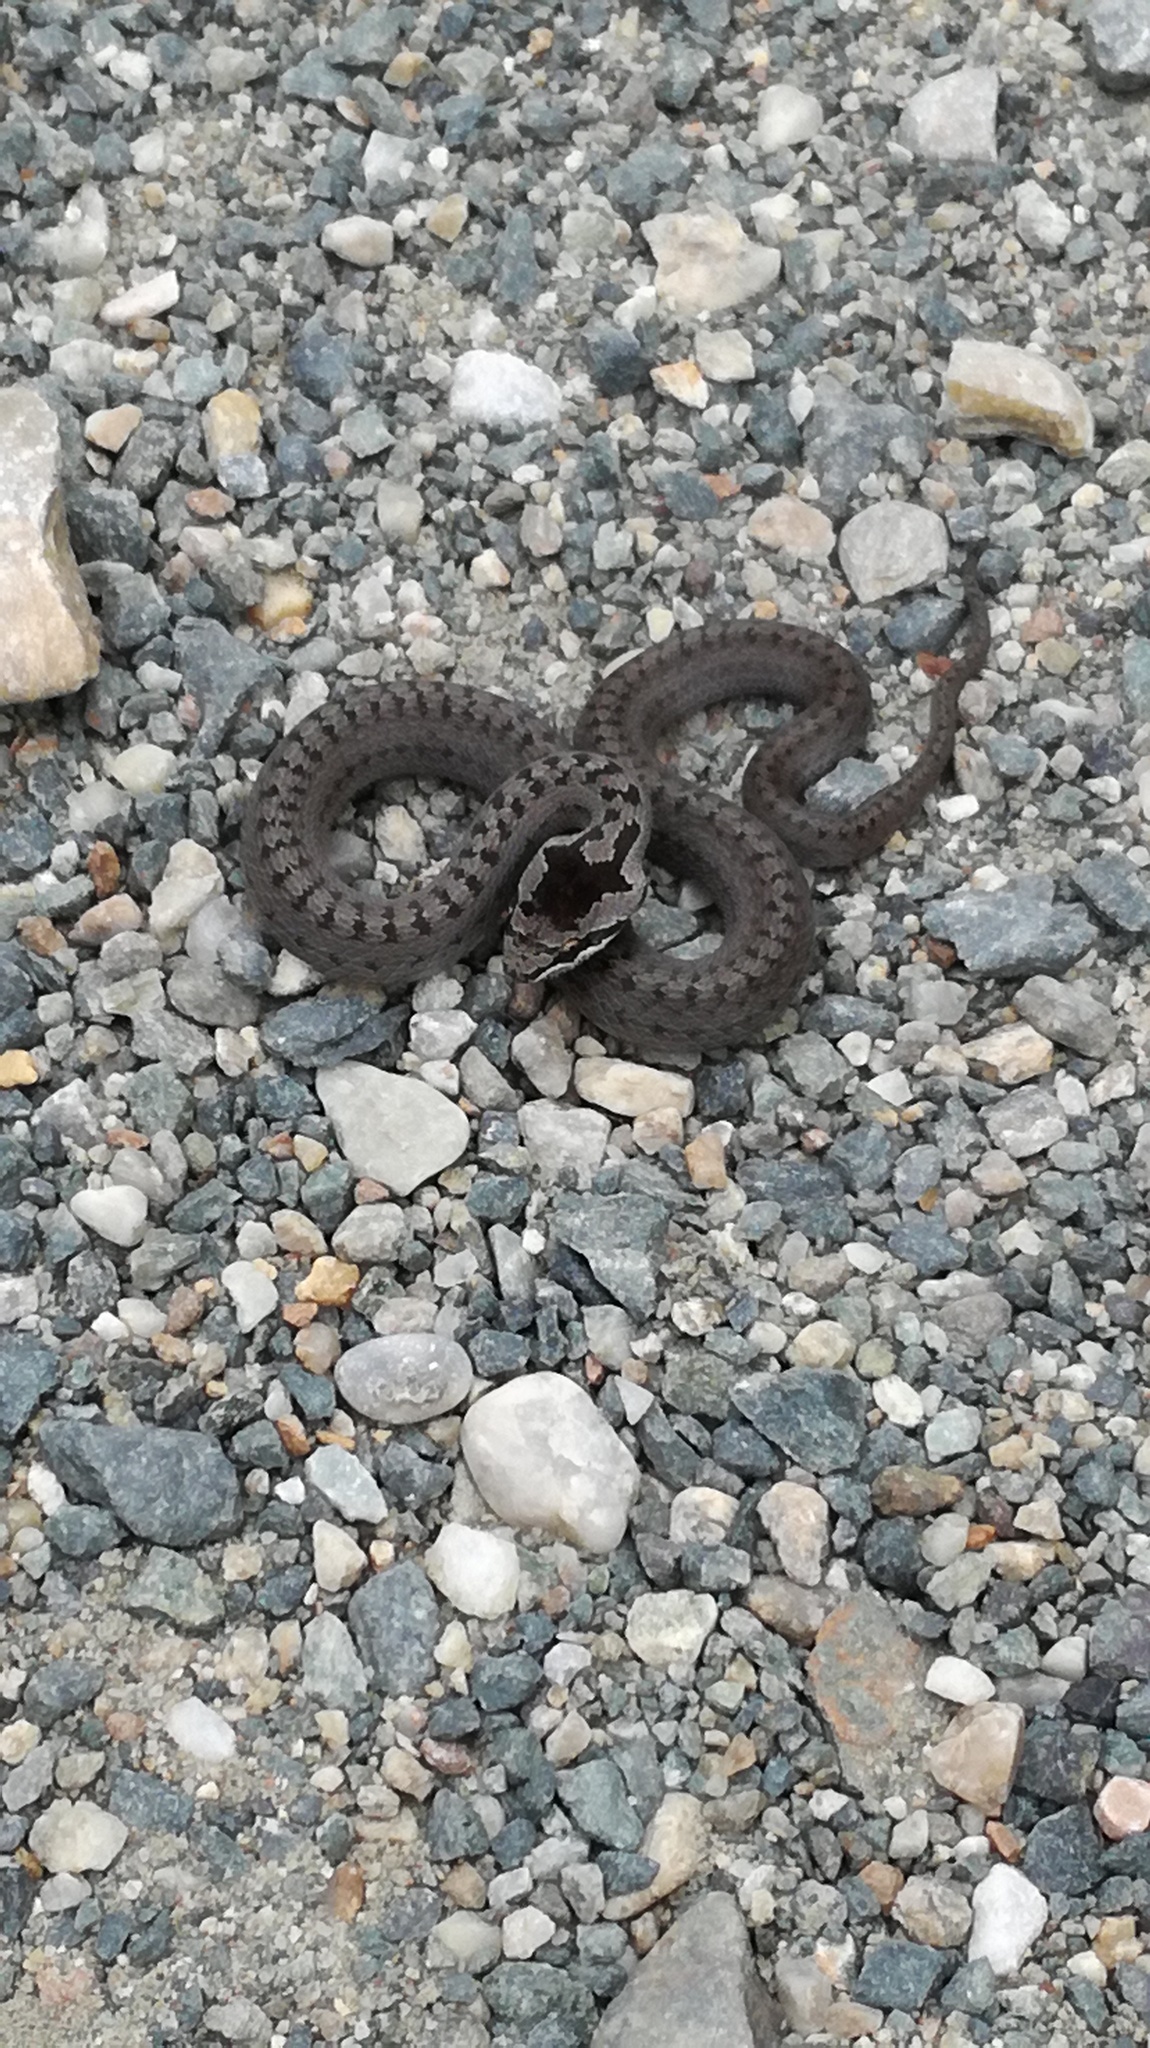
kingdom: Animalia
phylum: Chordata
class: Squamata
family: Colubridae
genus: Coronella
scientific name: Coronella austriaca
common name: Smooth snake
